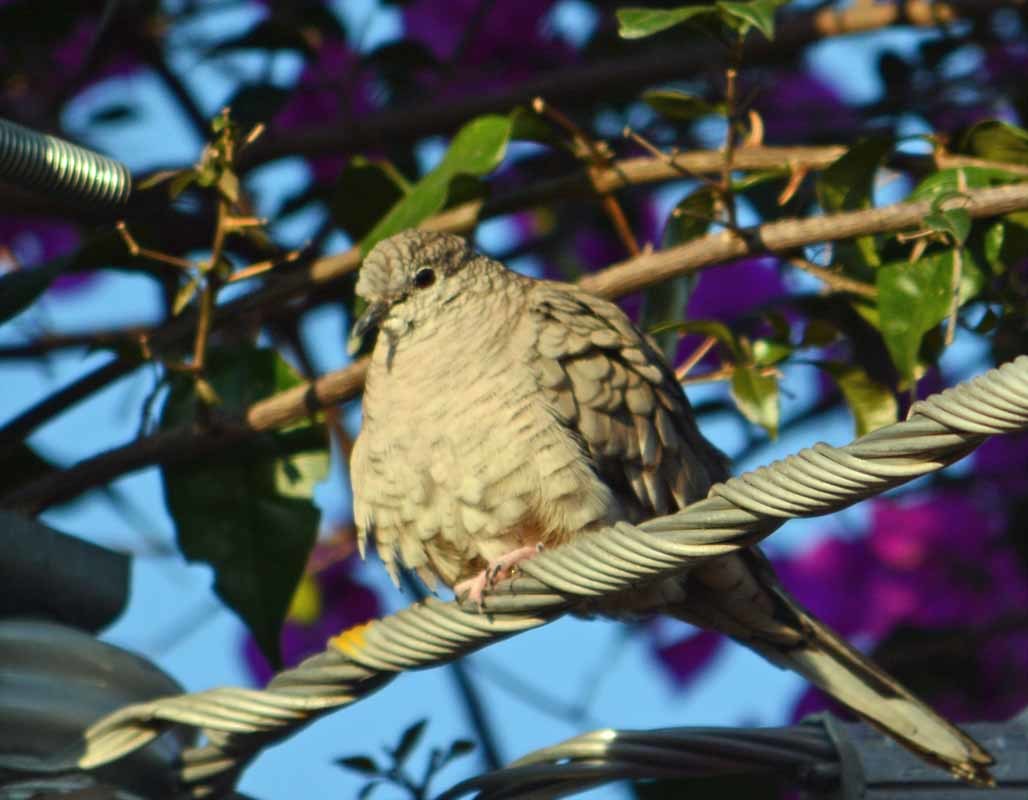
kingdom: Animalia
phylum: Chordata
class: Aves
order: Columbiformes
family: Columbidae
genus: Columbina
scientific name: Columbina inca
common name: Inca dove
